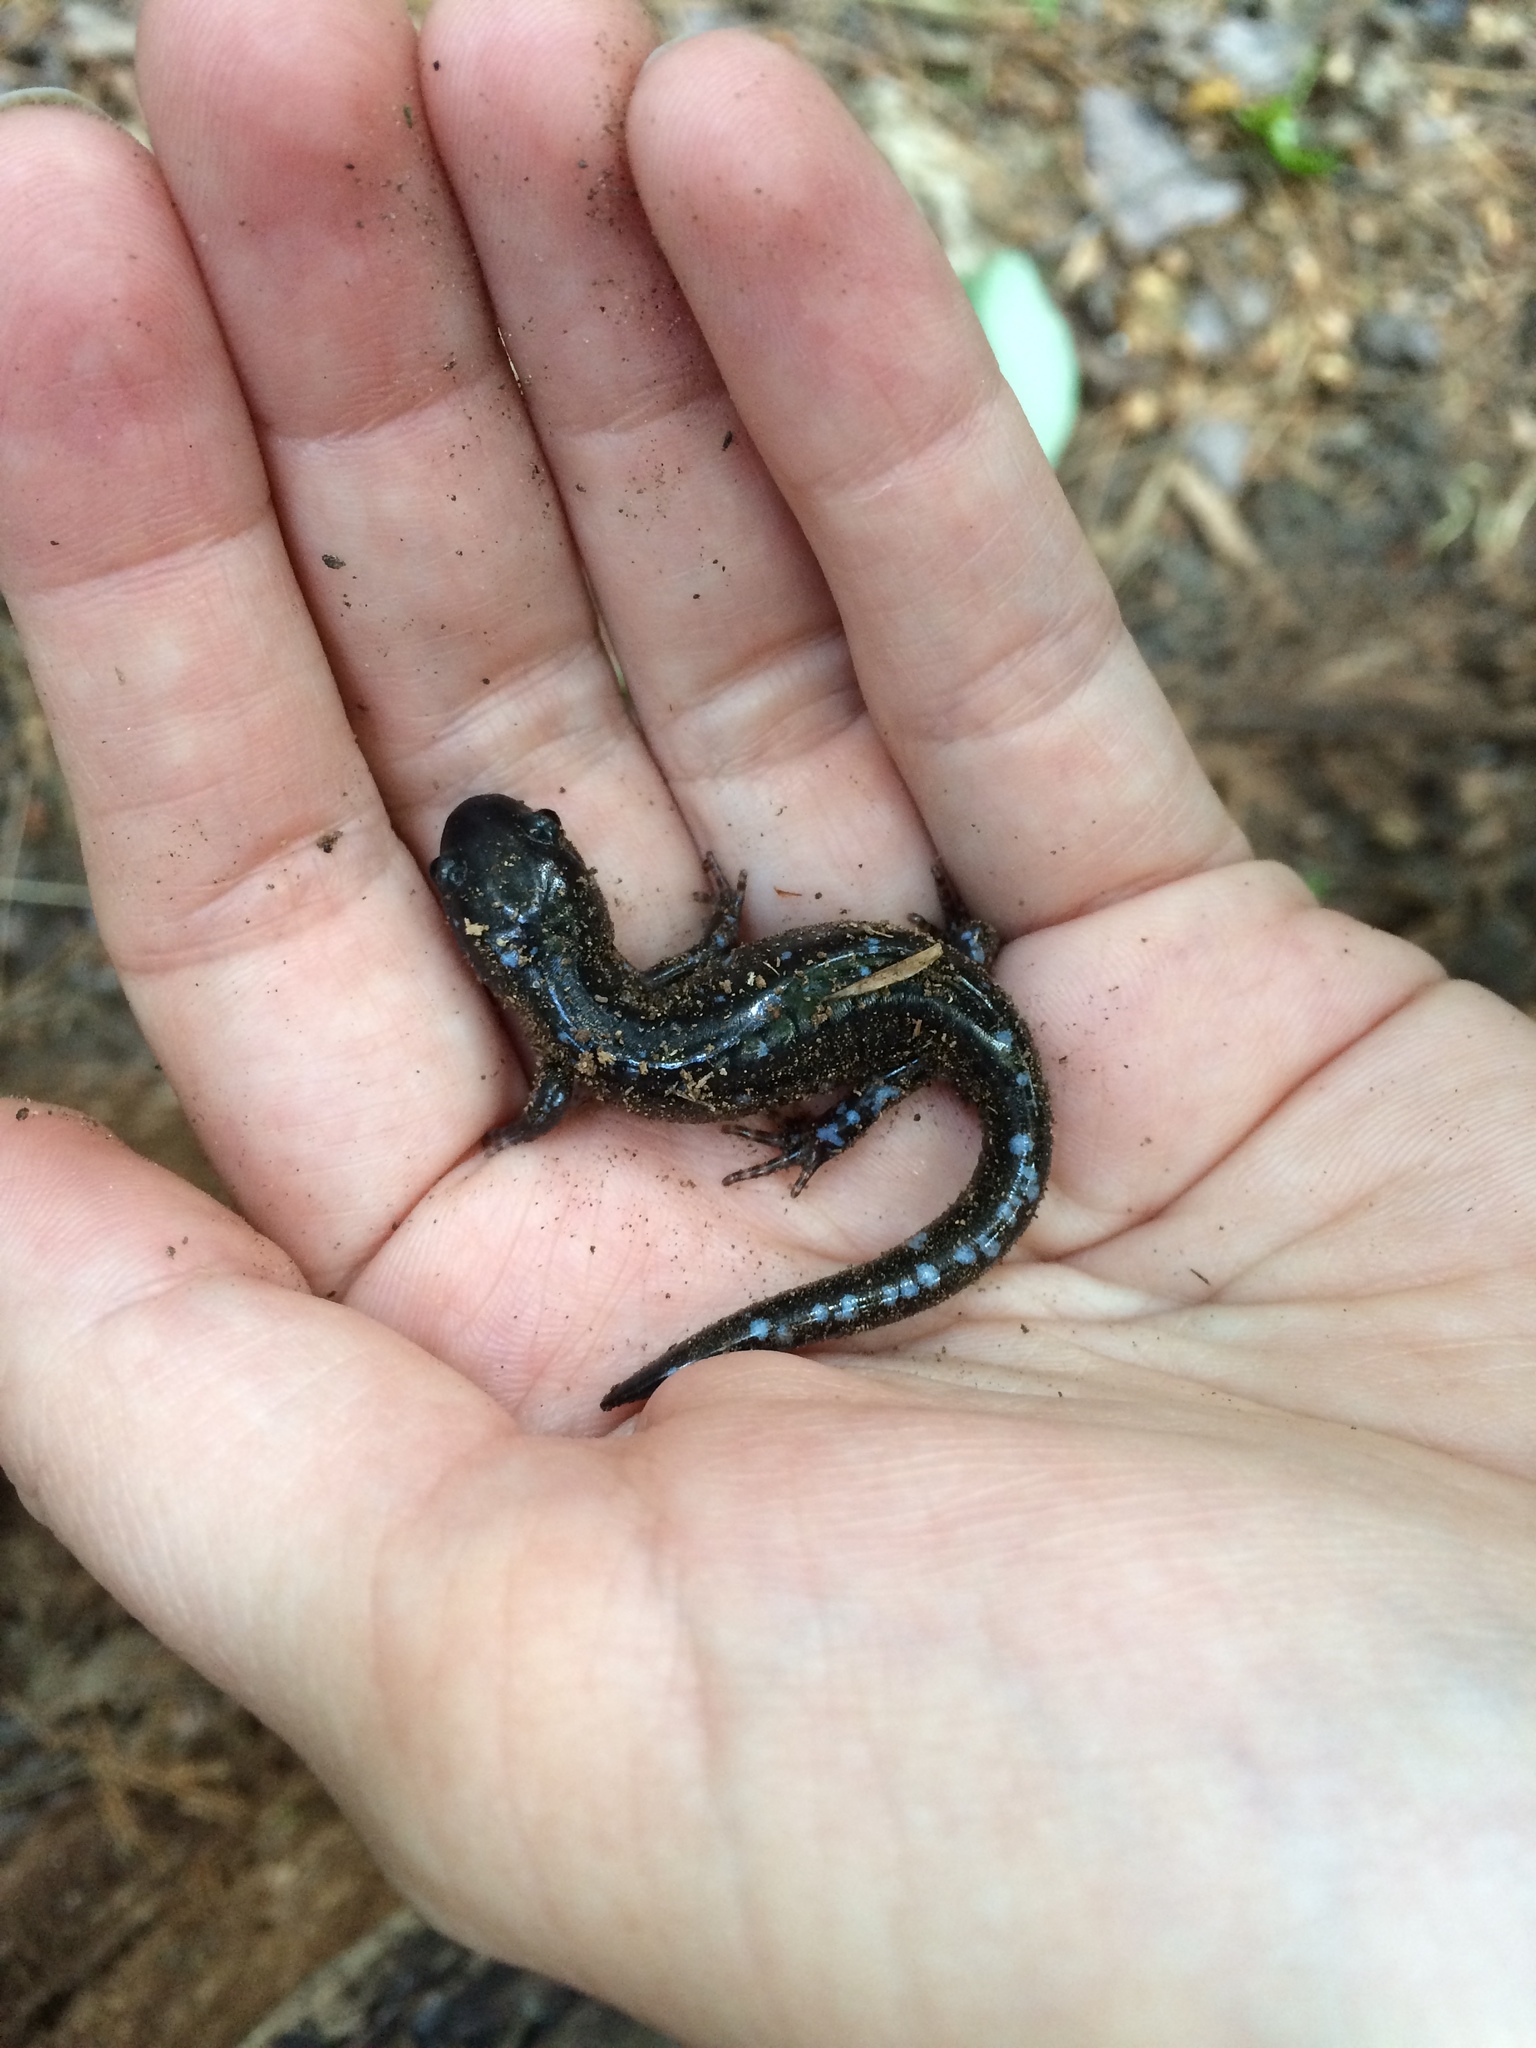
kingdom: Animalia
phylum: Chordata
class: Amphibia
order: Caudata
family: Ambystomatidae
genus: Ambystoma
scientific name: Ambystoma laterale
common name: Blue-spotted salamander
